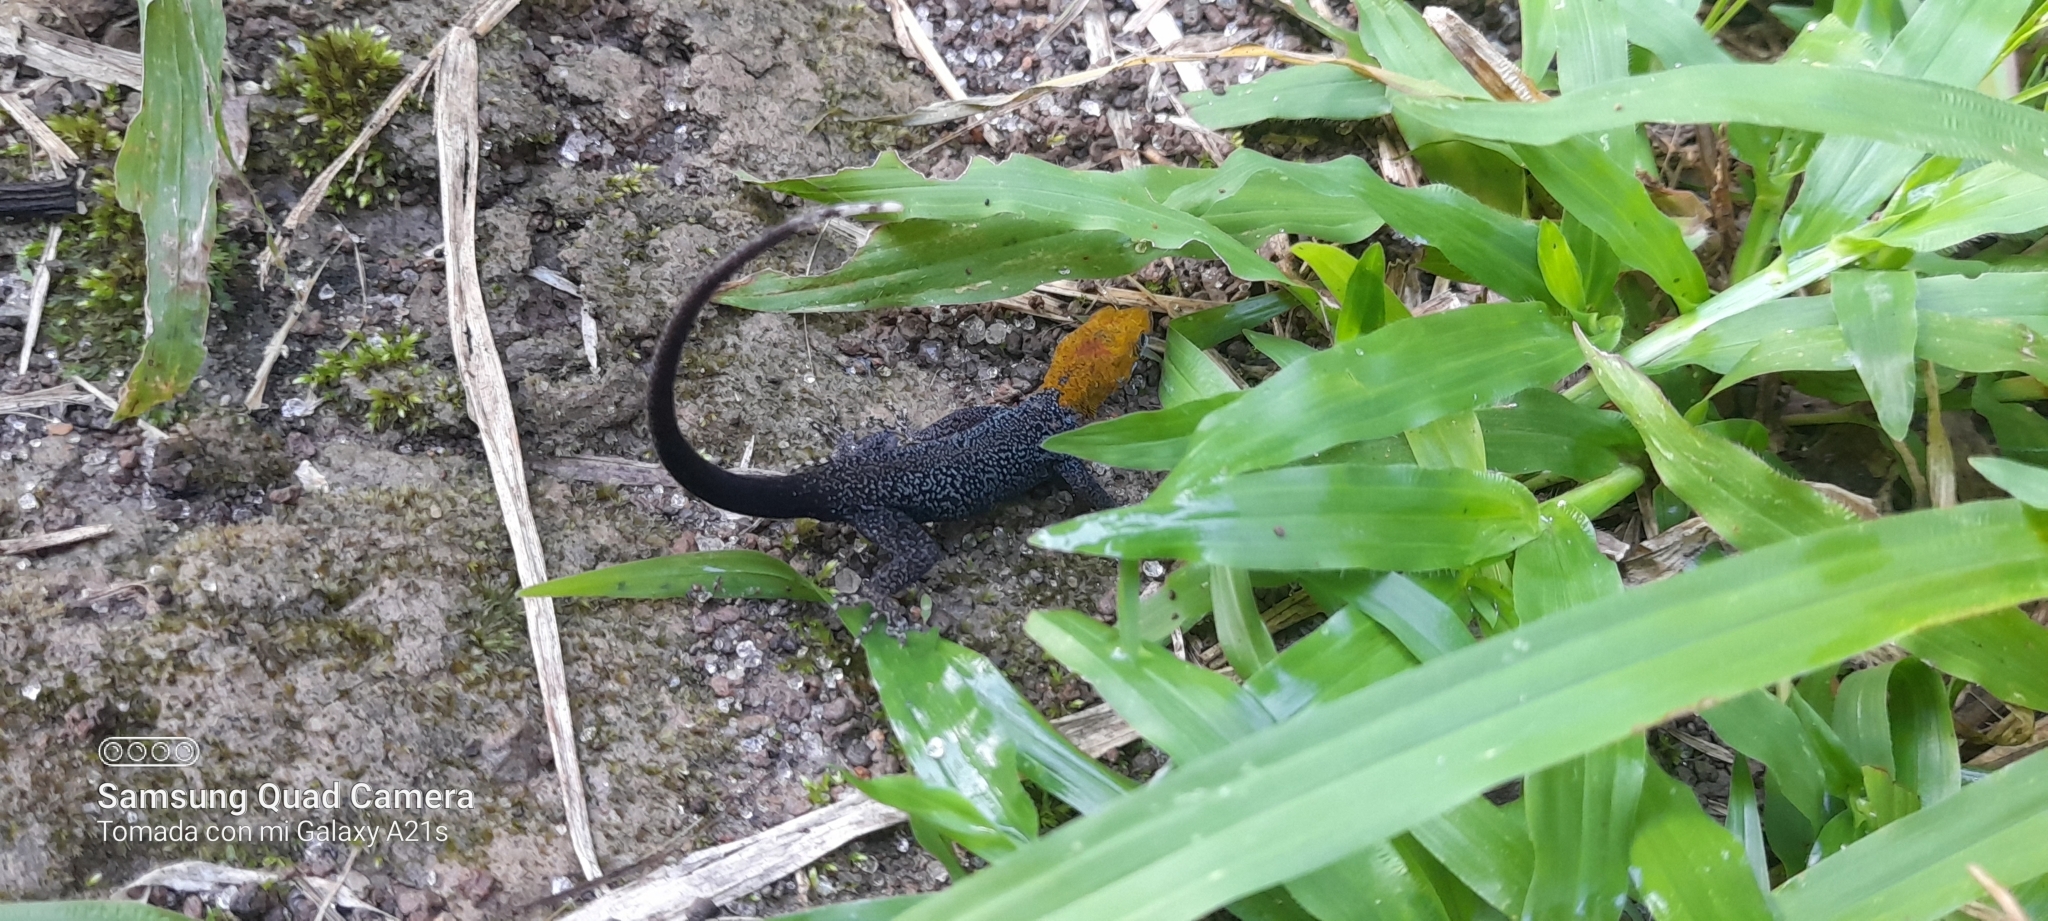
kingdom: Animalia
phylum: Chordata
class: Squamata
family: Sphaerodactylidae
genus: Gonatodes
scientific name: Gonatodes albogularis
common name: Yellow-headed gecko
